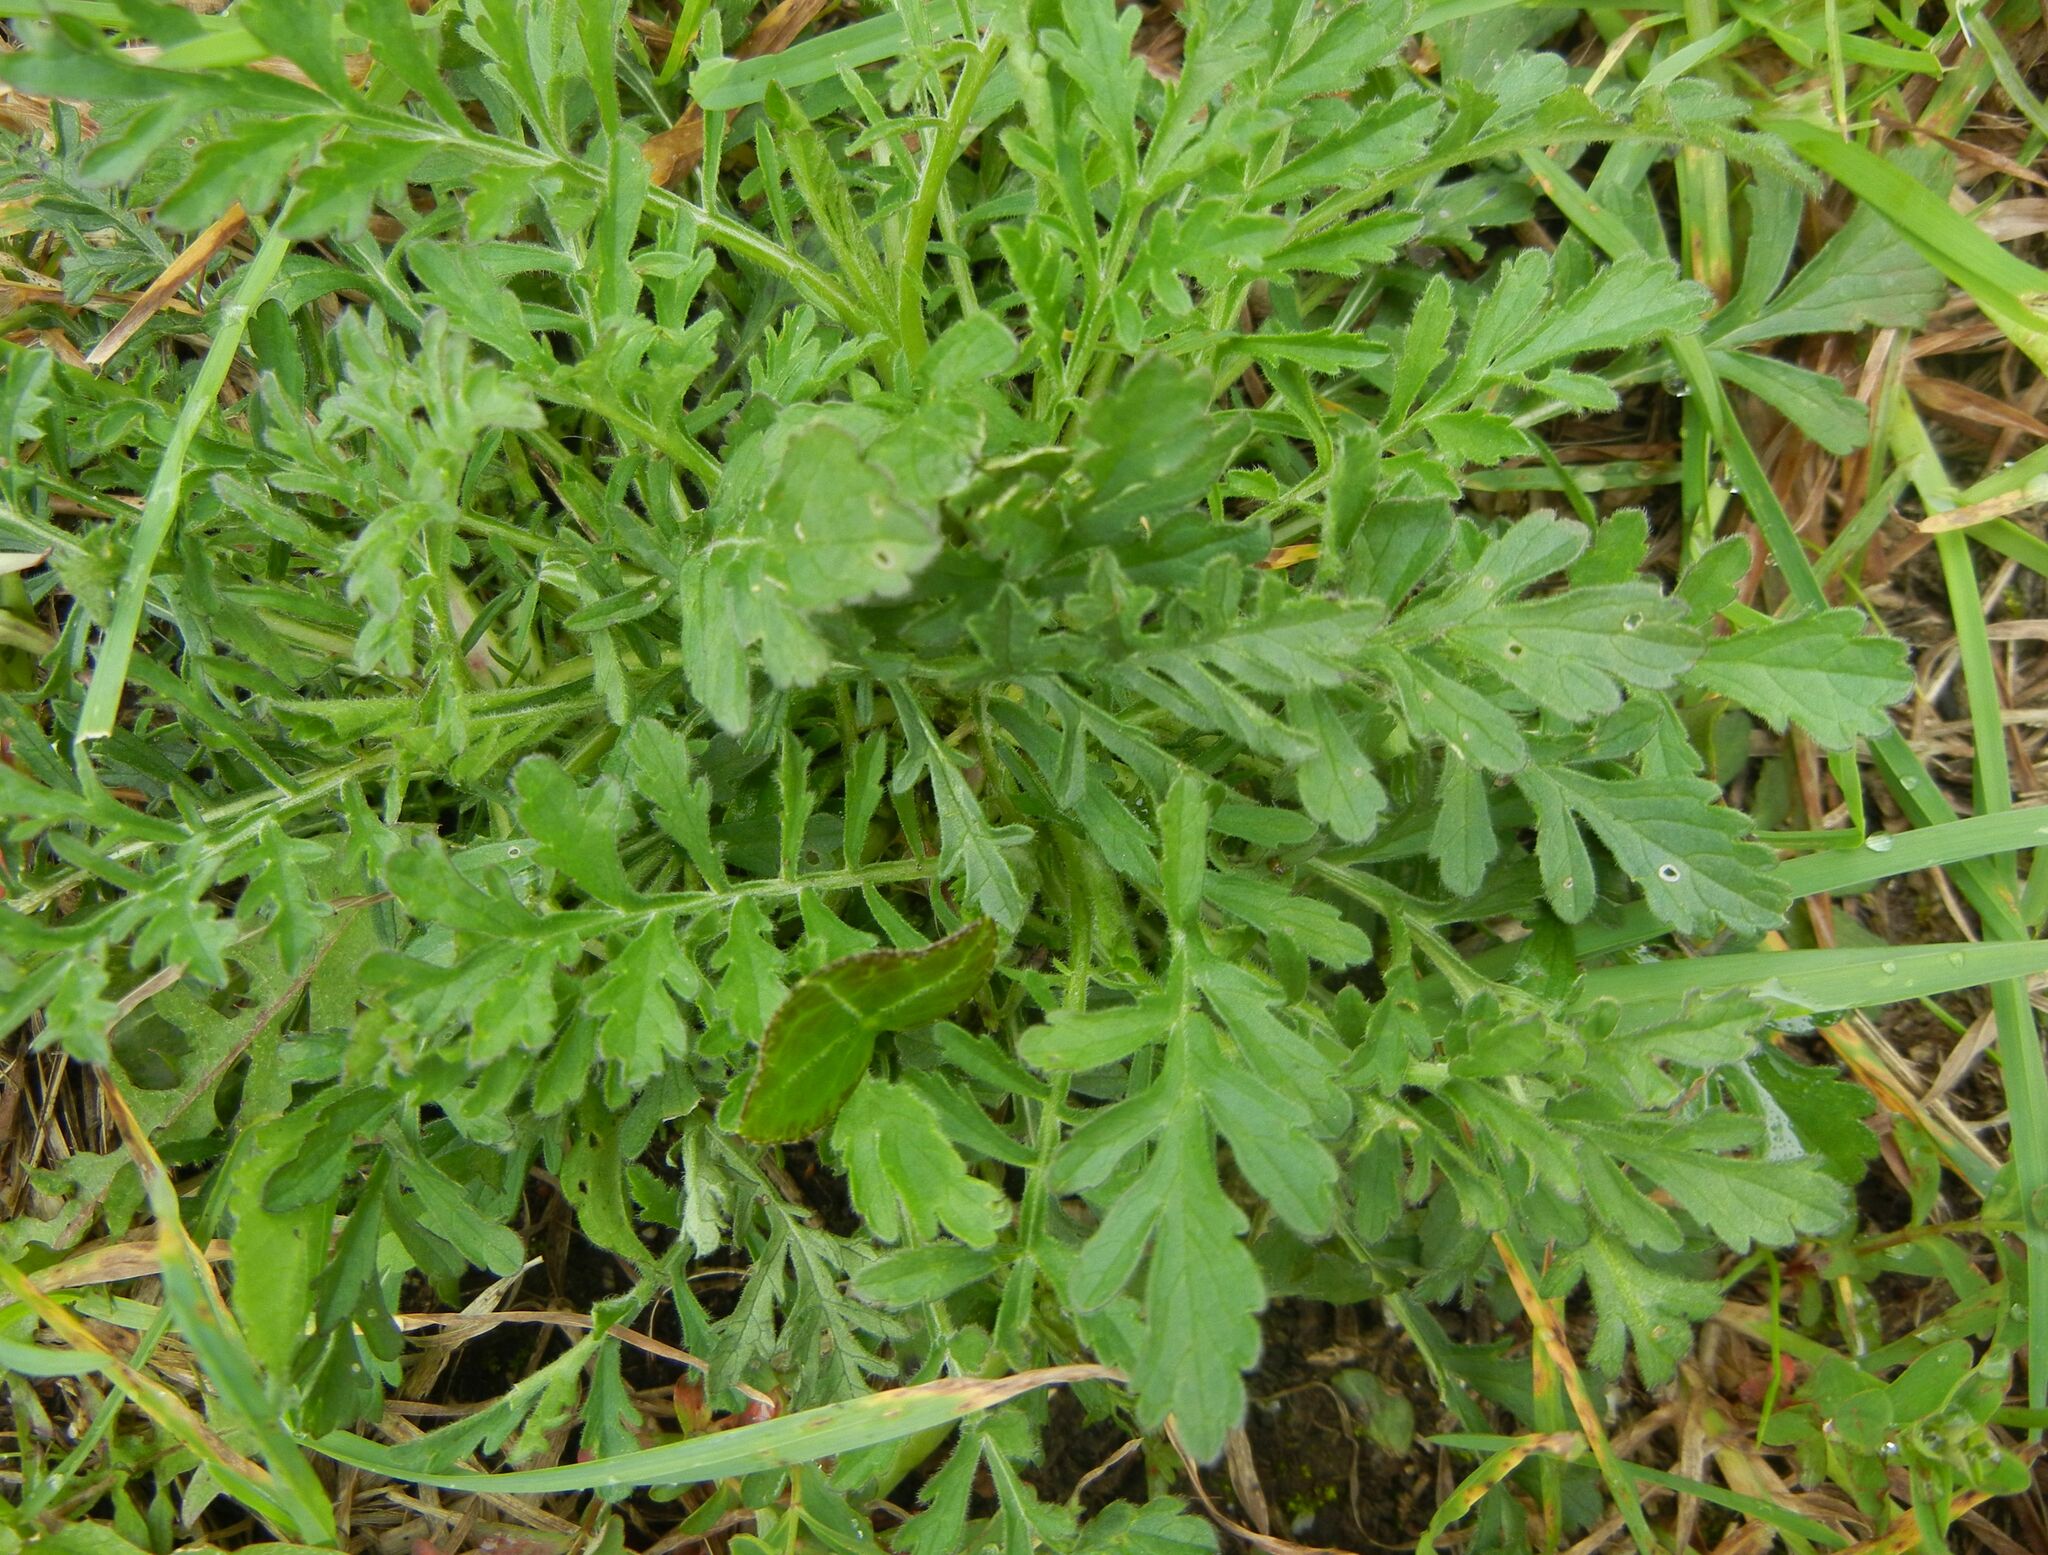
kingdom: Plantae
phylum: Tracheophyta
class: Magnoliopsida
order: Dipsacales
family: Caprifoliaceae
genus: Scabiosa
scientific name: Scabiosa columbaria
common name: Small scabious
